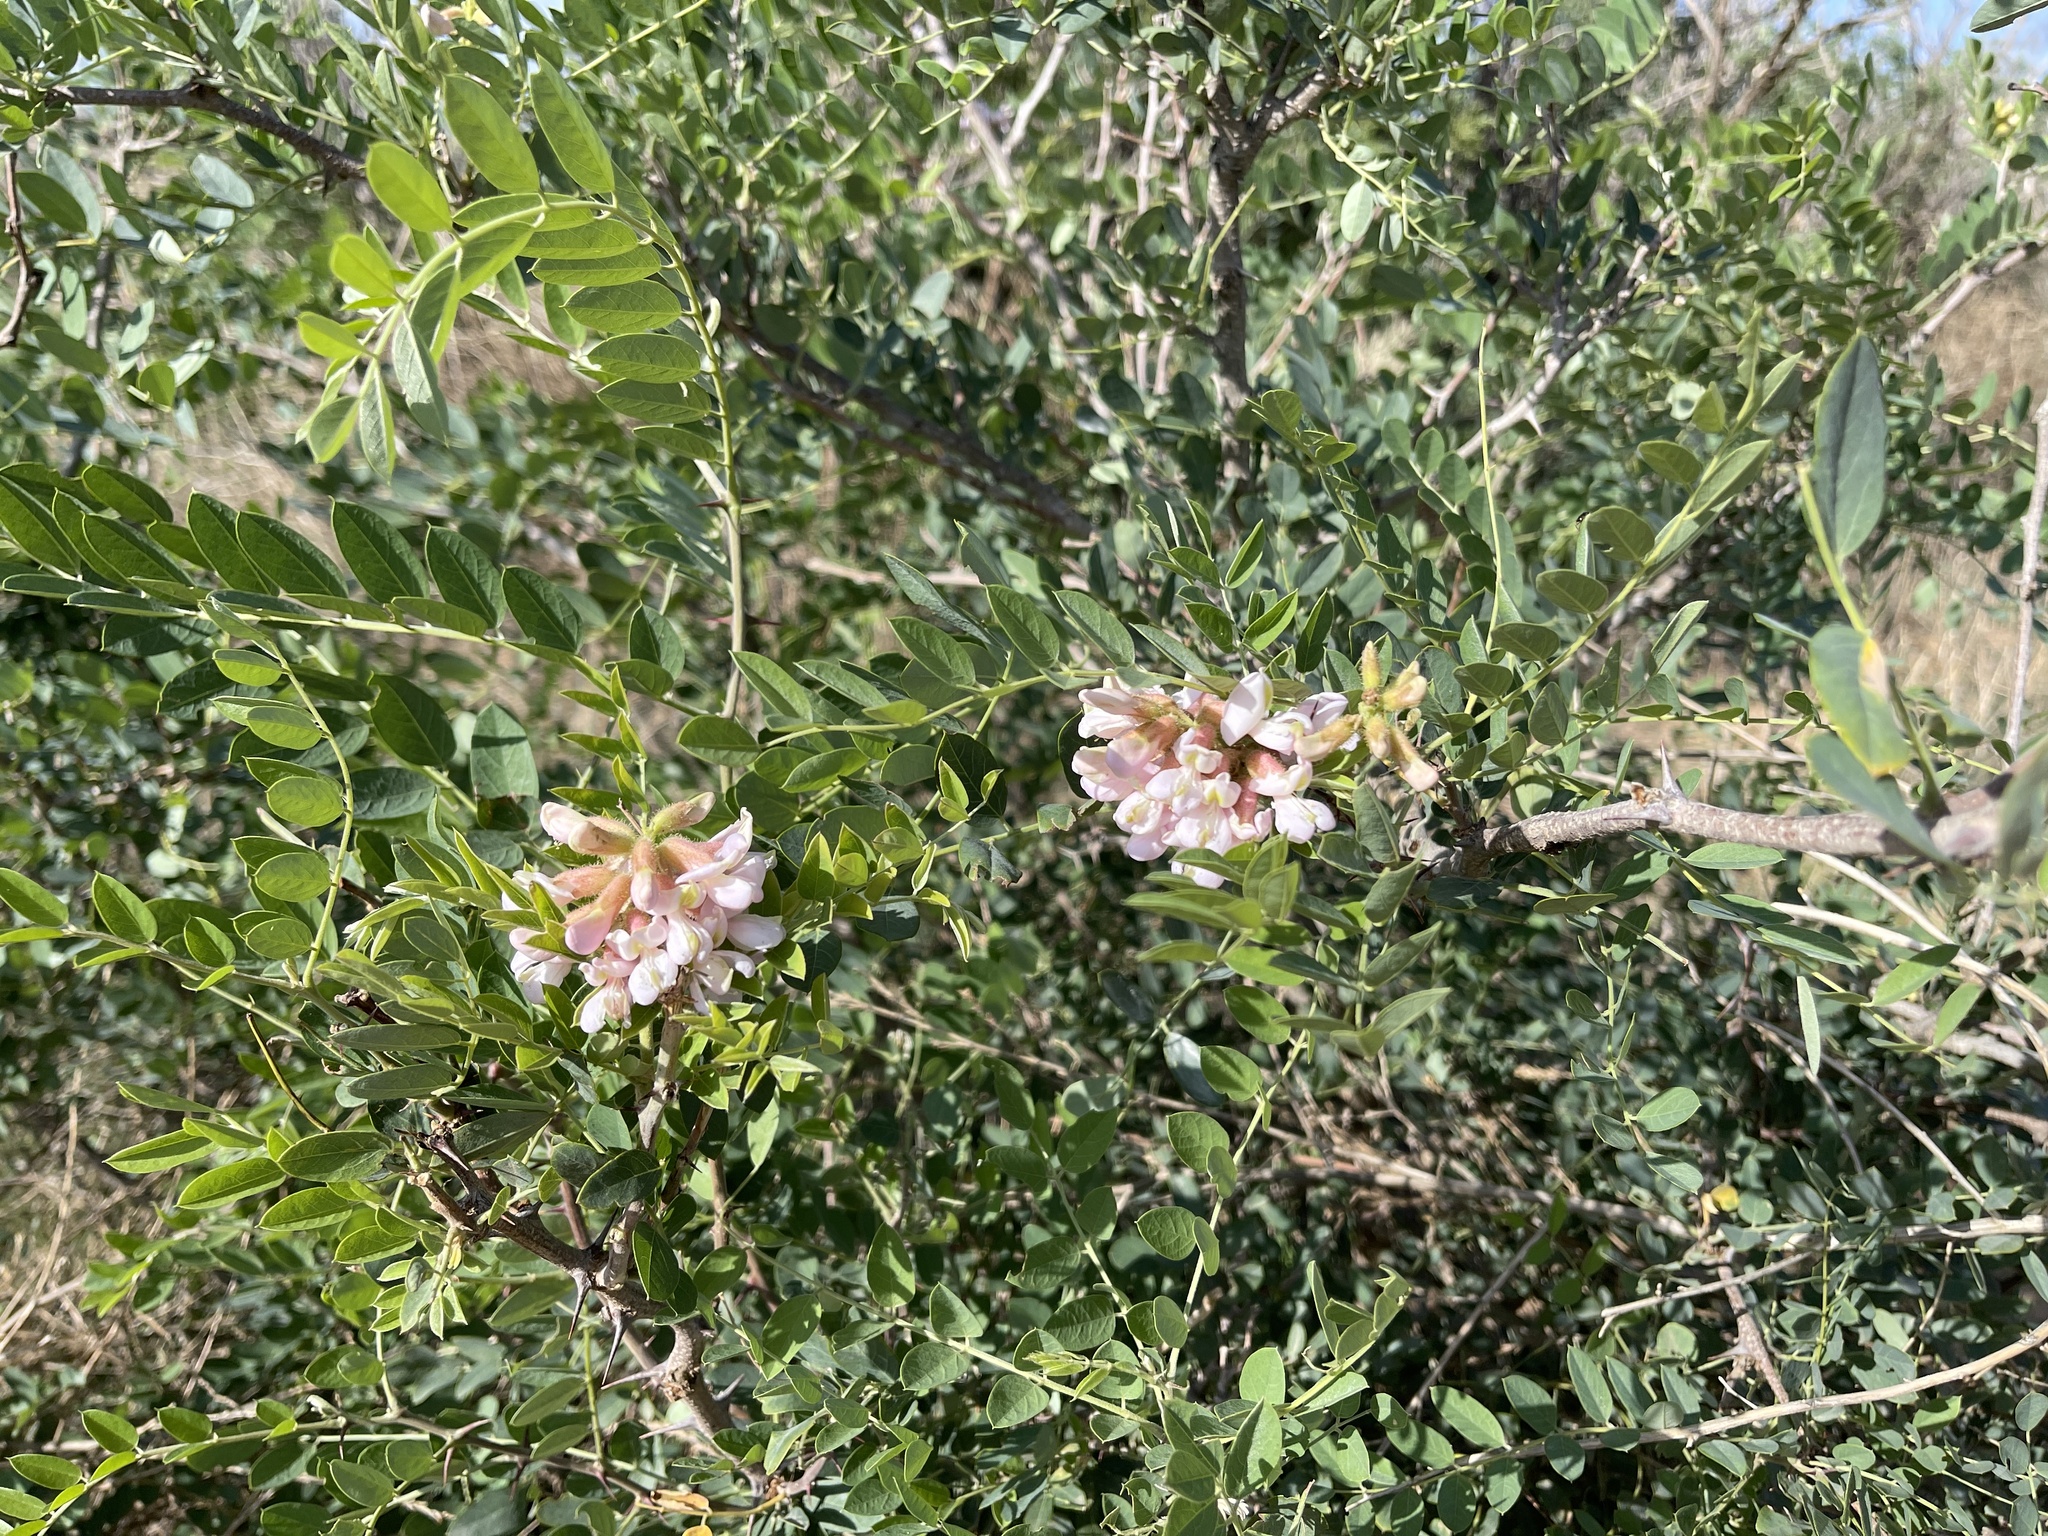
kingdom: Plantae
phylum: Tracheophyta
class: Magnoliopsida
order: Fabales
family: Fabaceae
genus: Robinia
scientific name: Robinia neomexicana
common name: New mexico locust
